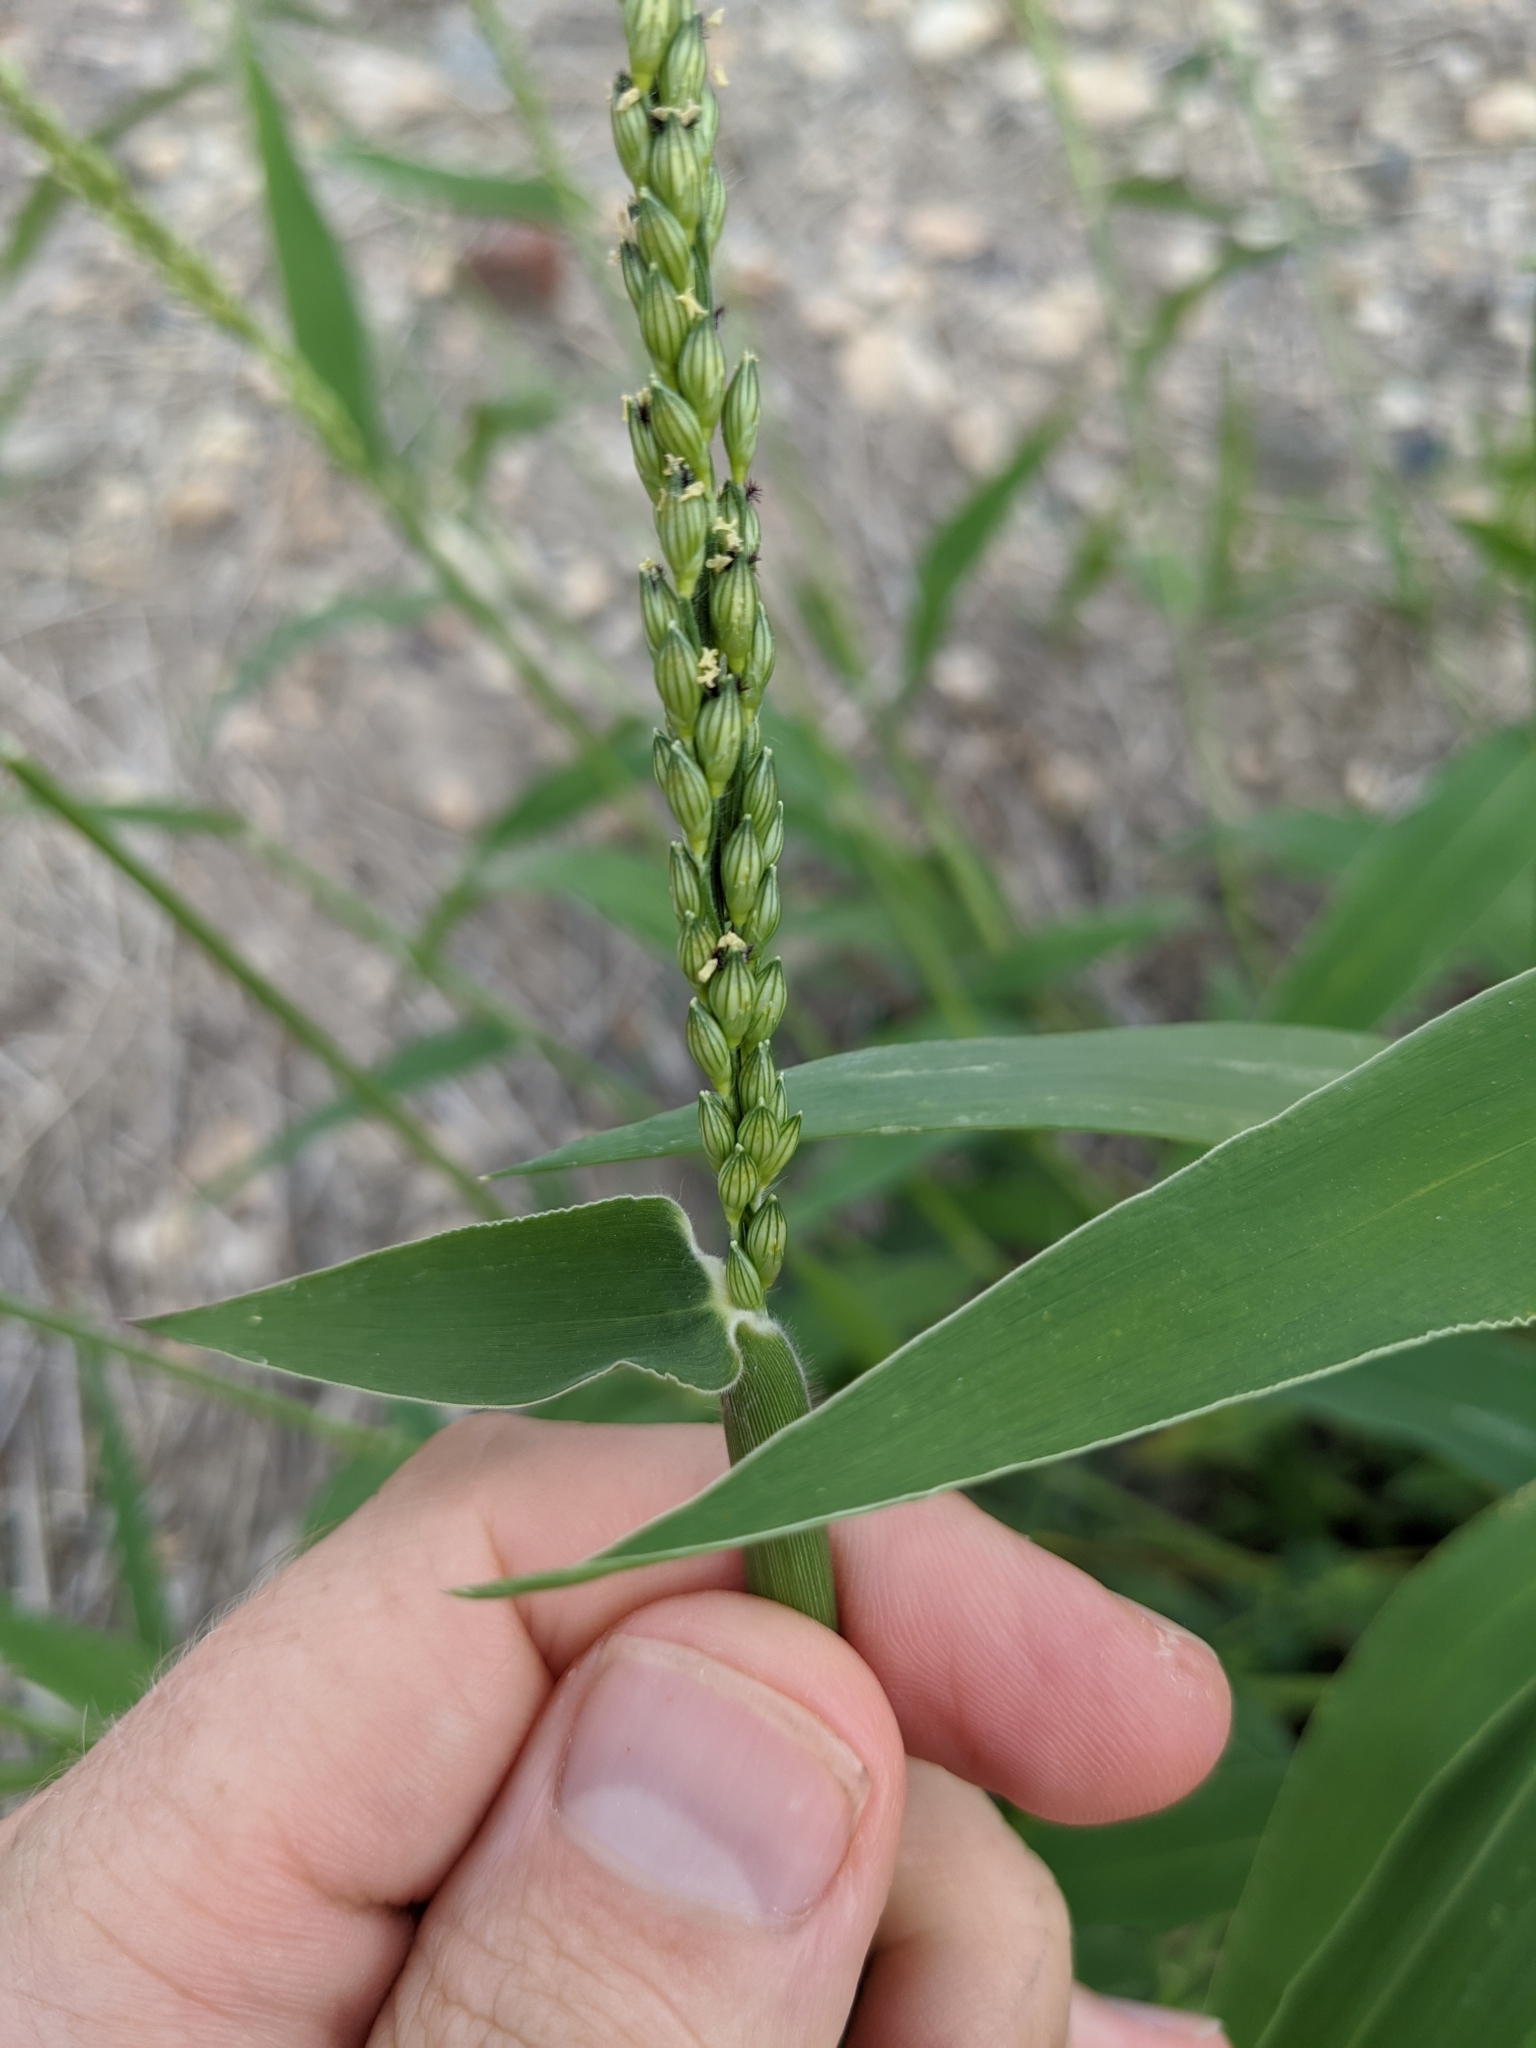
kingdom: Plantae
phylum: Tracheophyta
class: Liliopsida
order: Poales
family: Poaceae
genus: Urochloa
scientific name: Urochloa texana
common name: Texas millet
